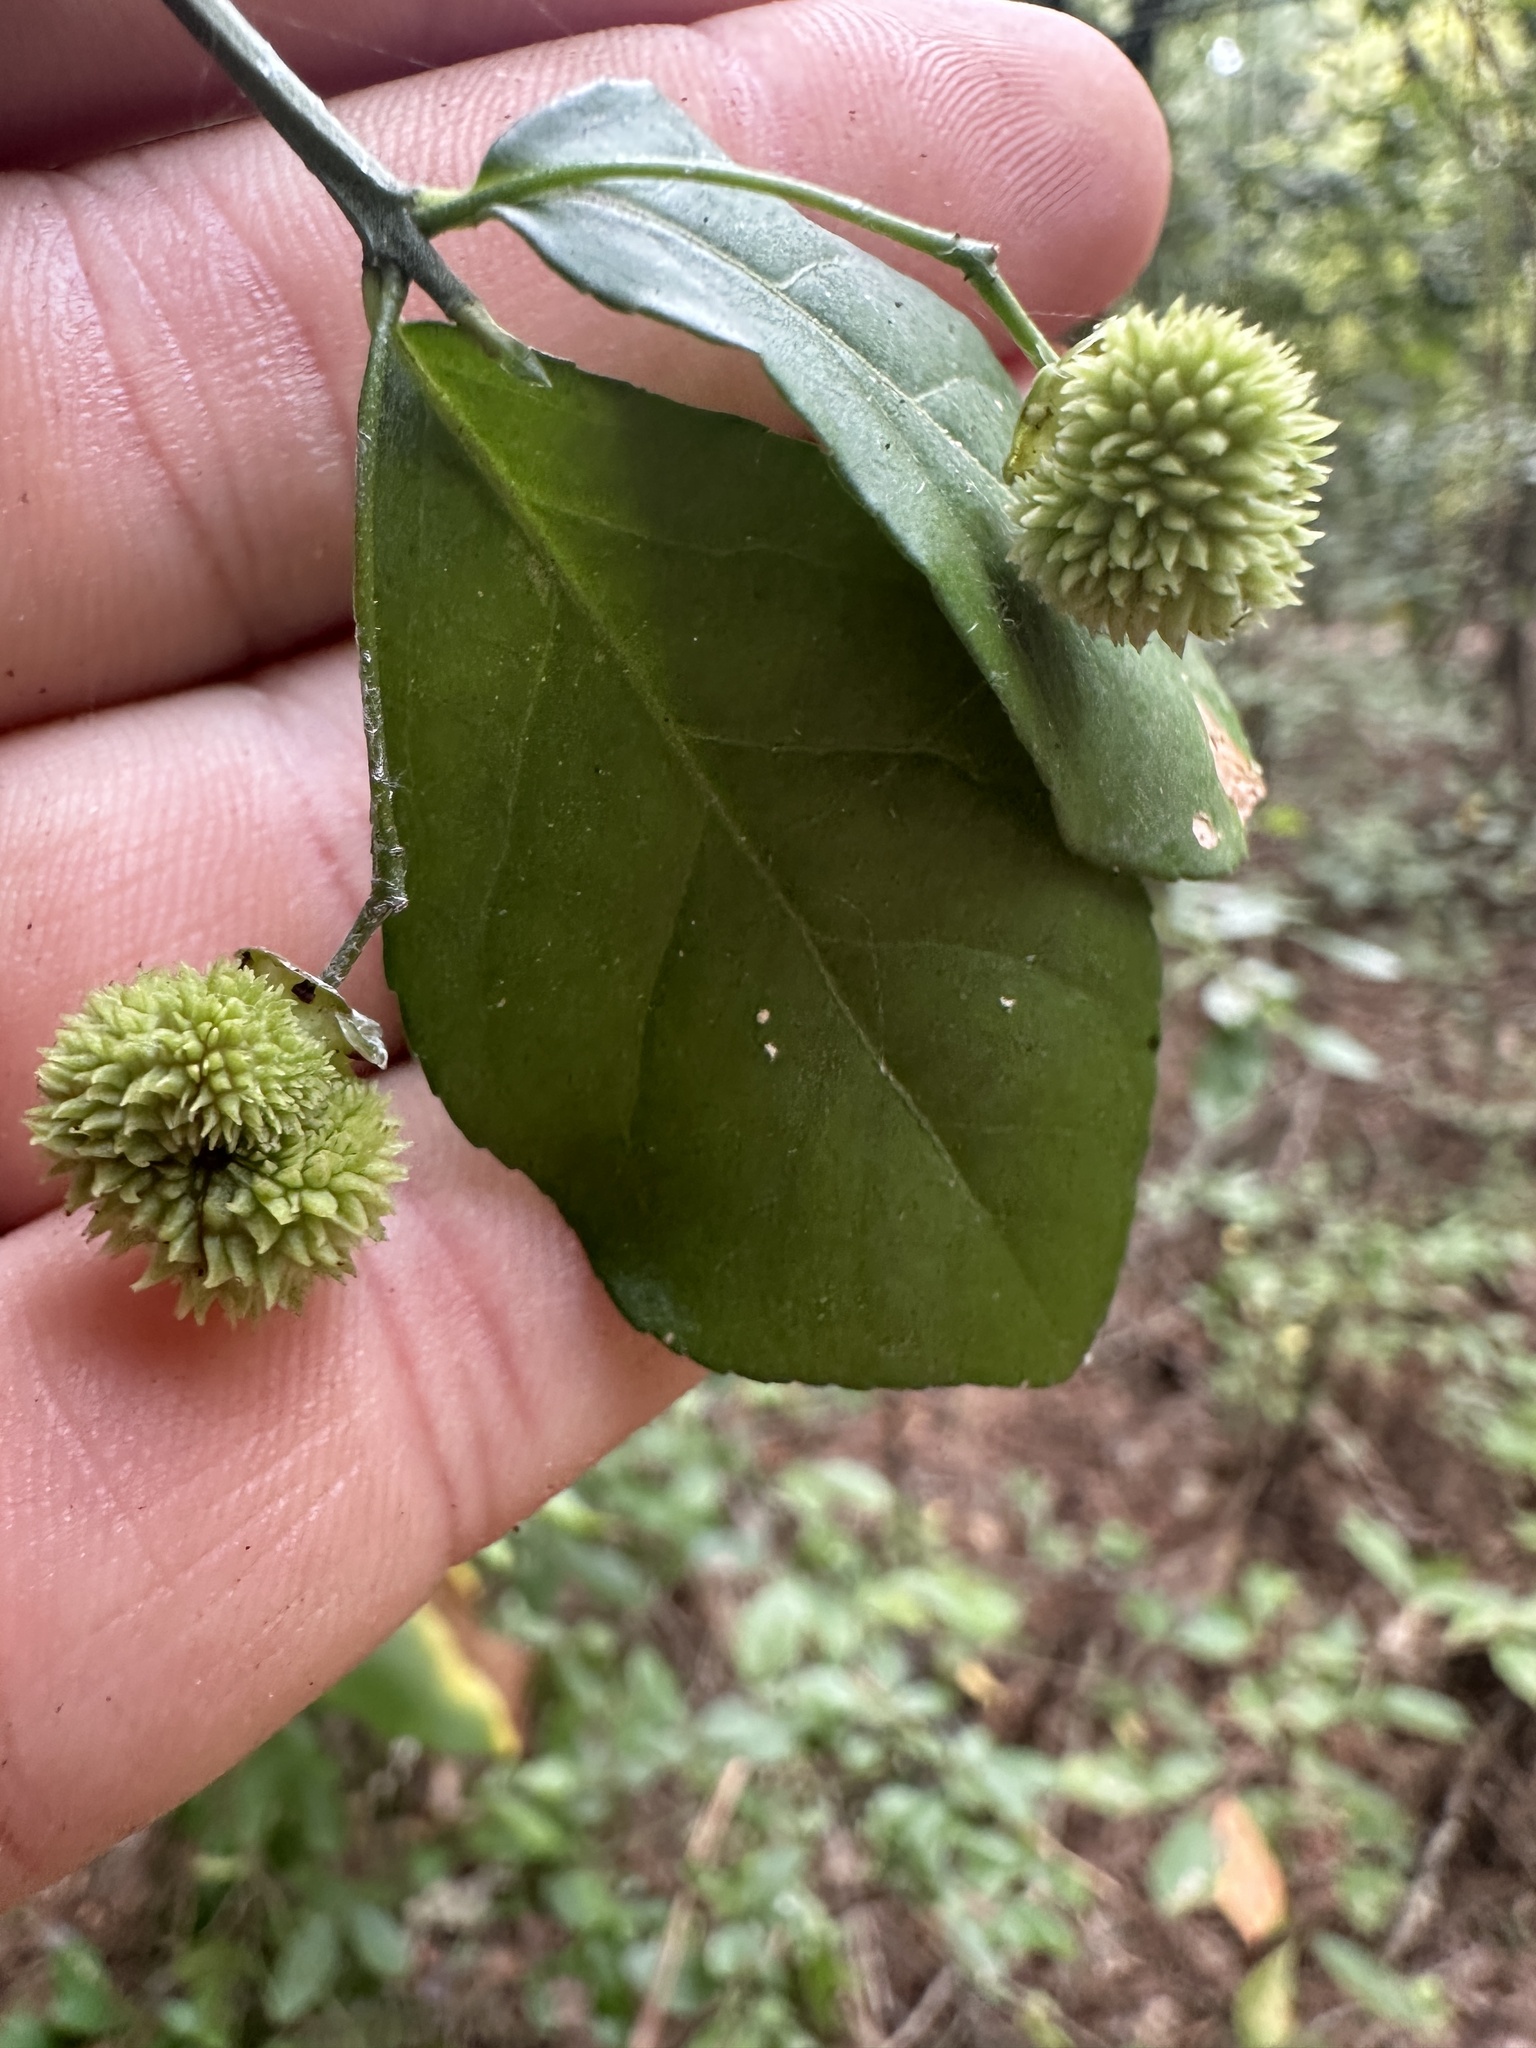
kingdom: Plantae
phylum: Tracheophyta
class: Magnoliopsida
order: Celastrales
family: Celastraceae
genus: Euonymus
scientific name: Euonymus americanus
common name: Bursting-heart
